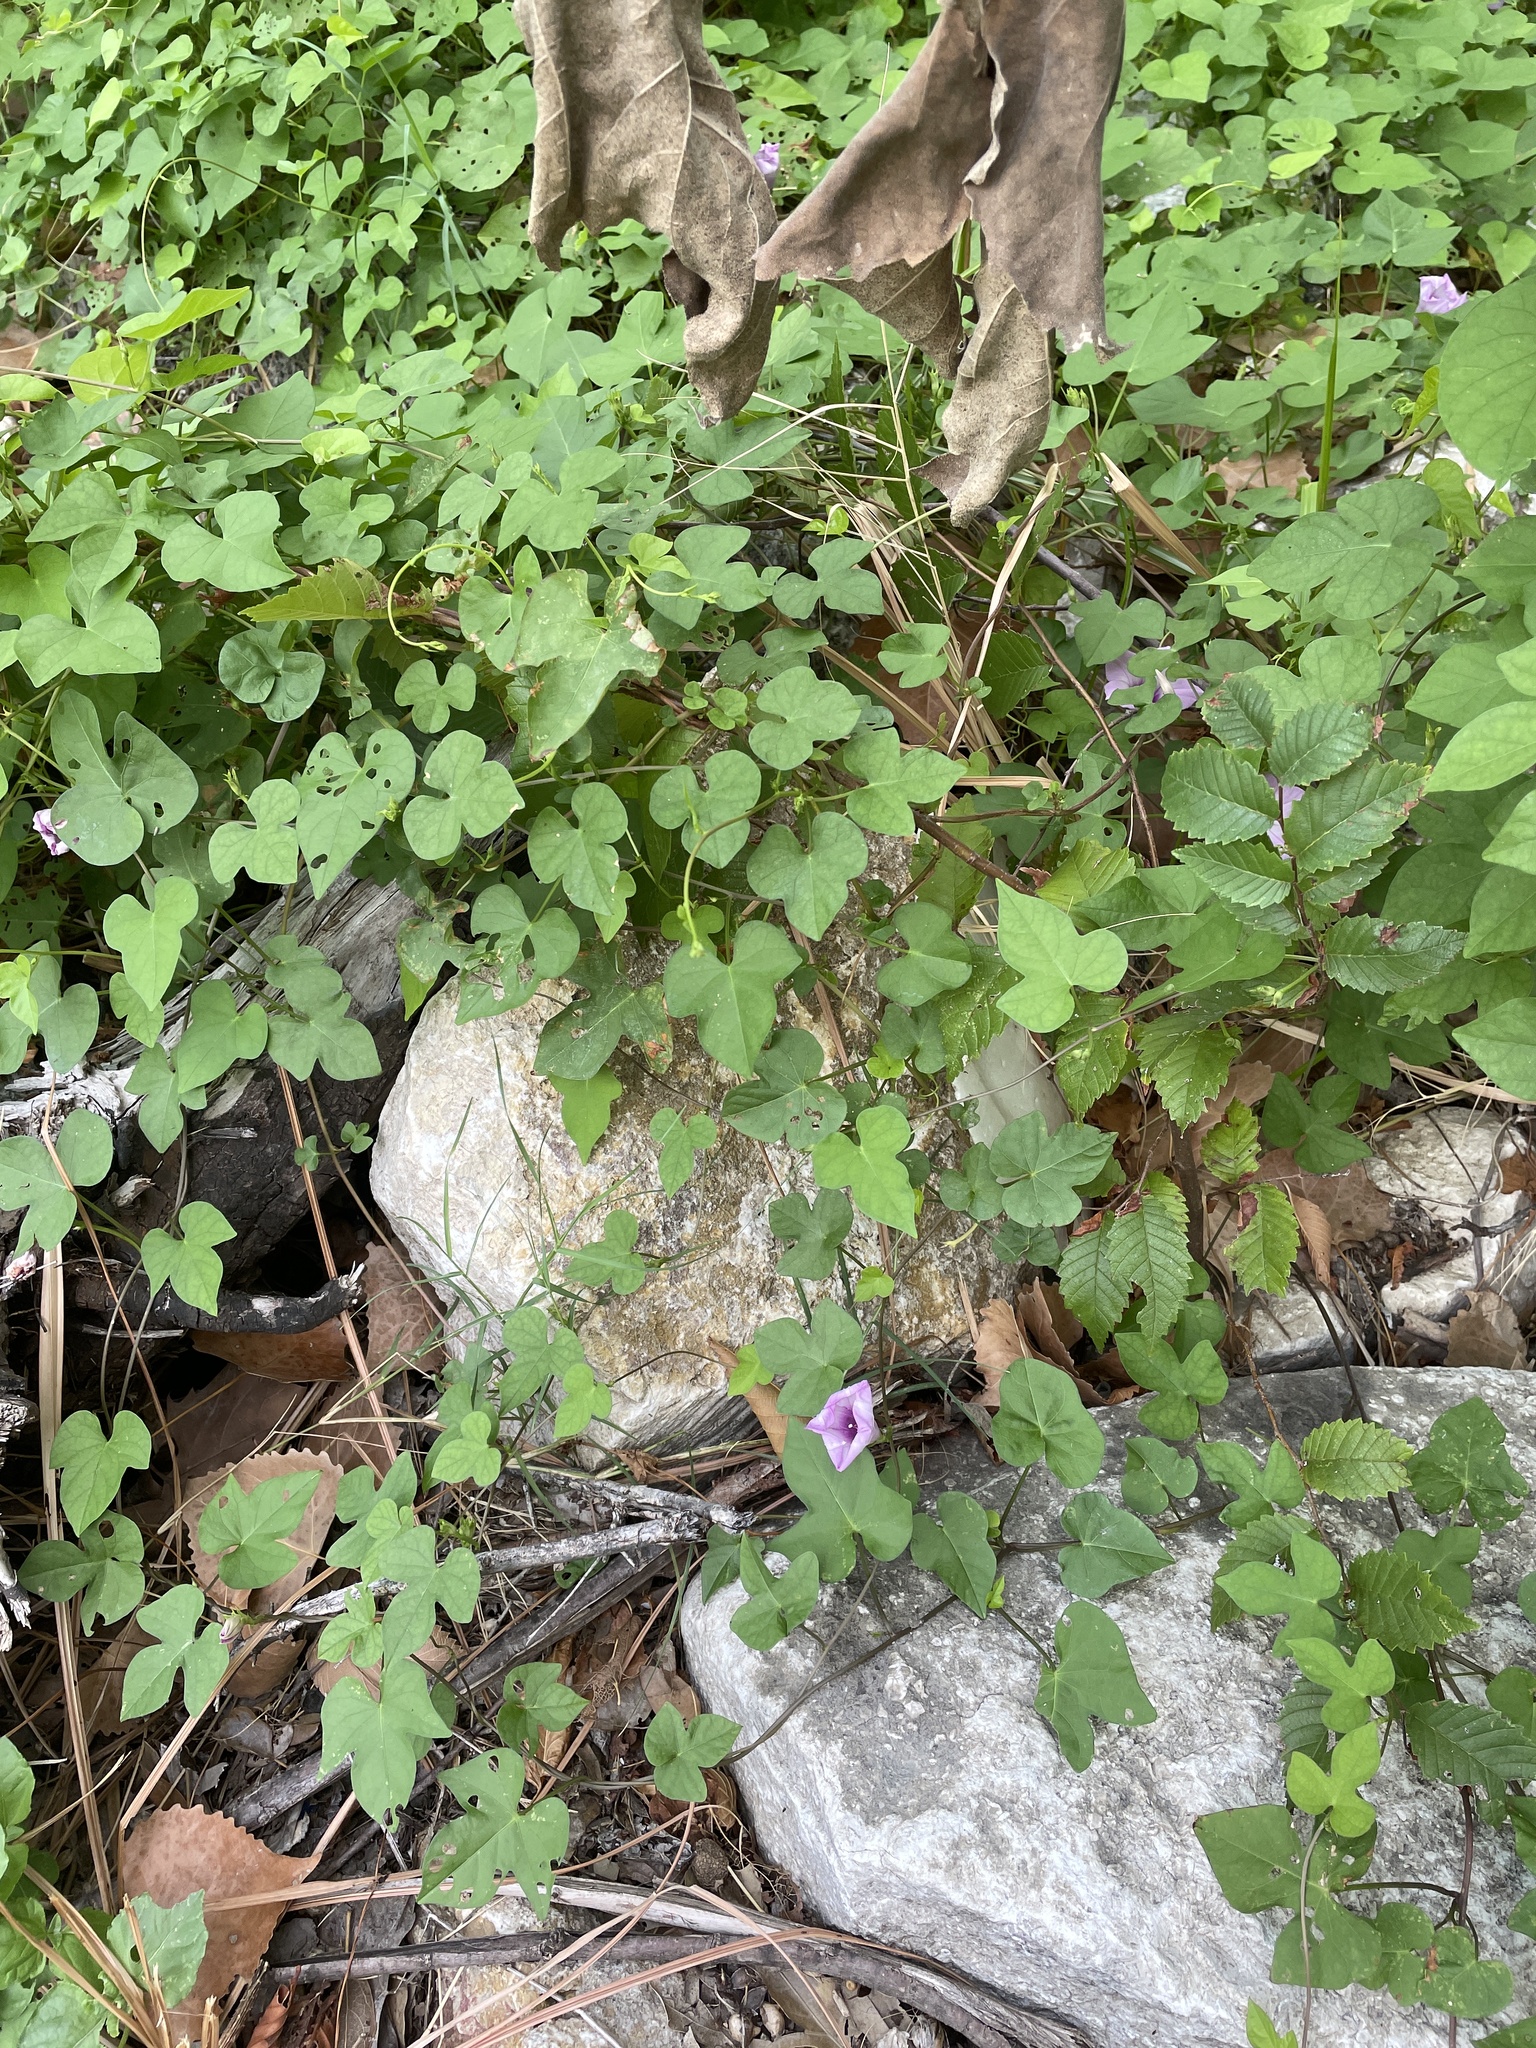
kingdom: Plantae
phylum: Tracheophyta
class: Magnoliopsida
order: Solanales
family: Convolvulaceae
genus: Ipomoea
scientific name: Ipomoea cordatotriloba
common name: Cotton morning glory
